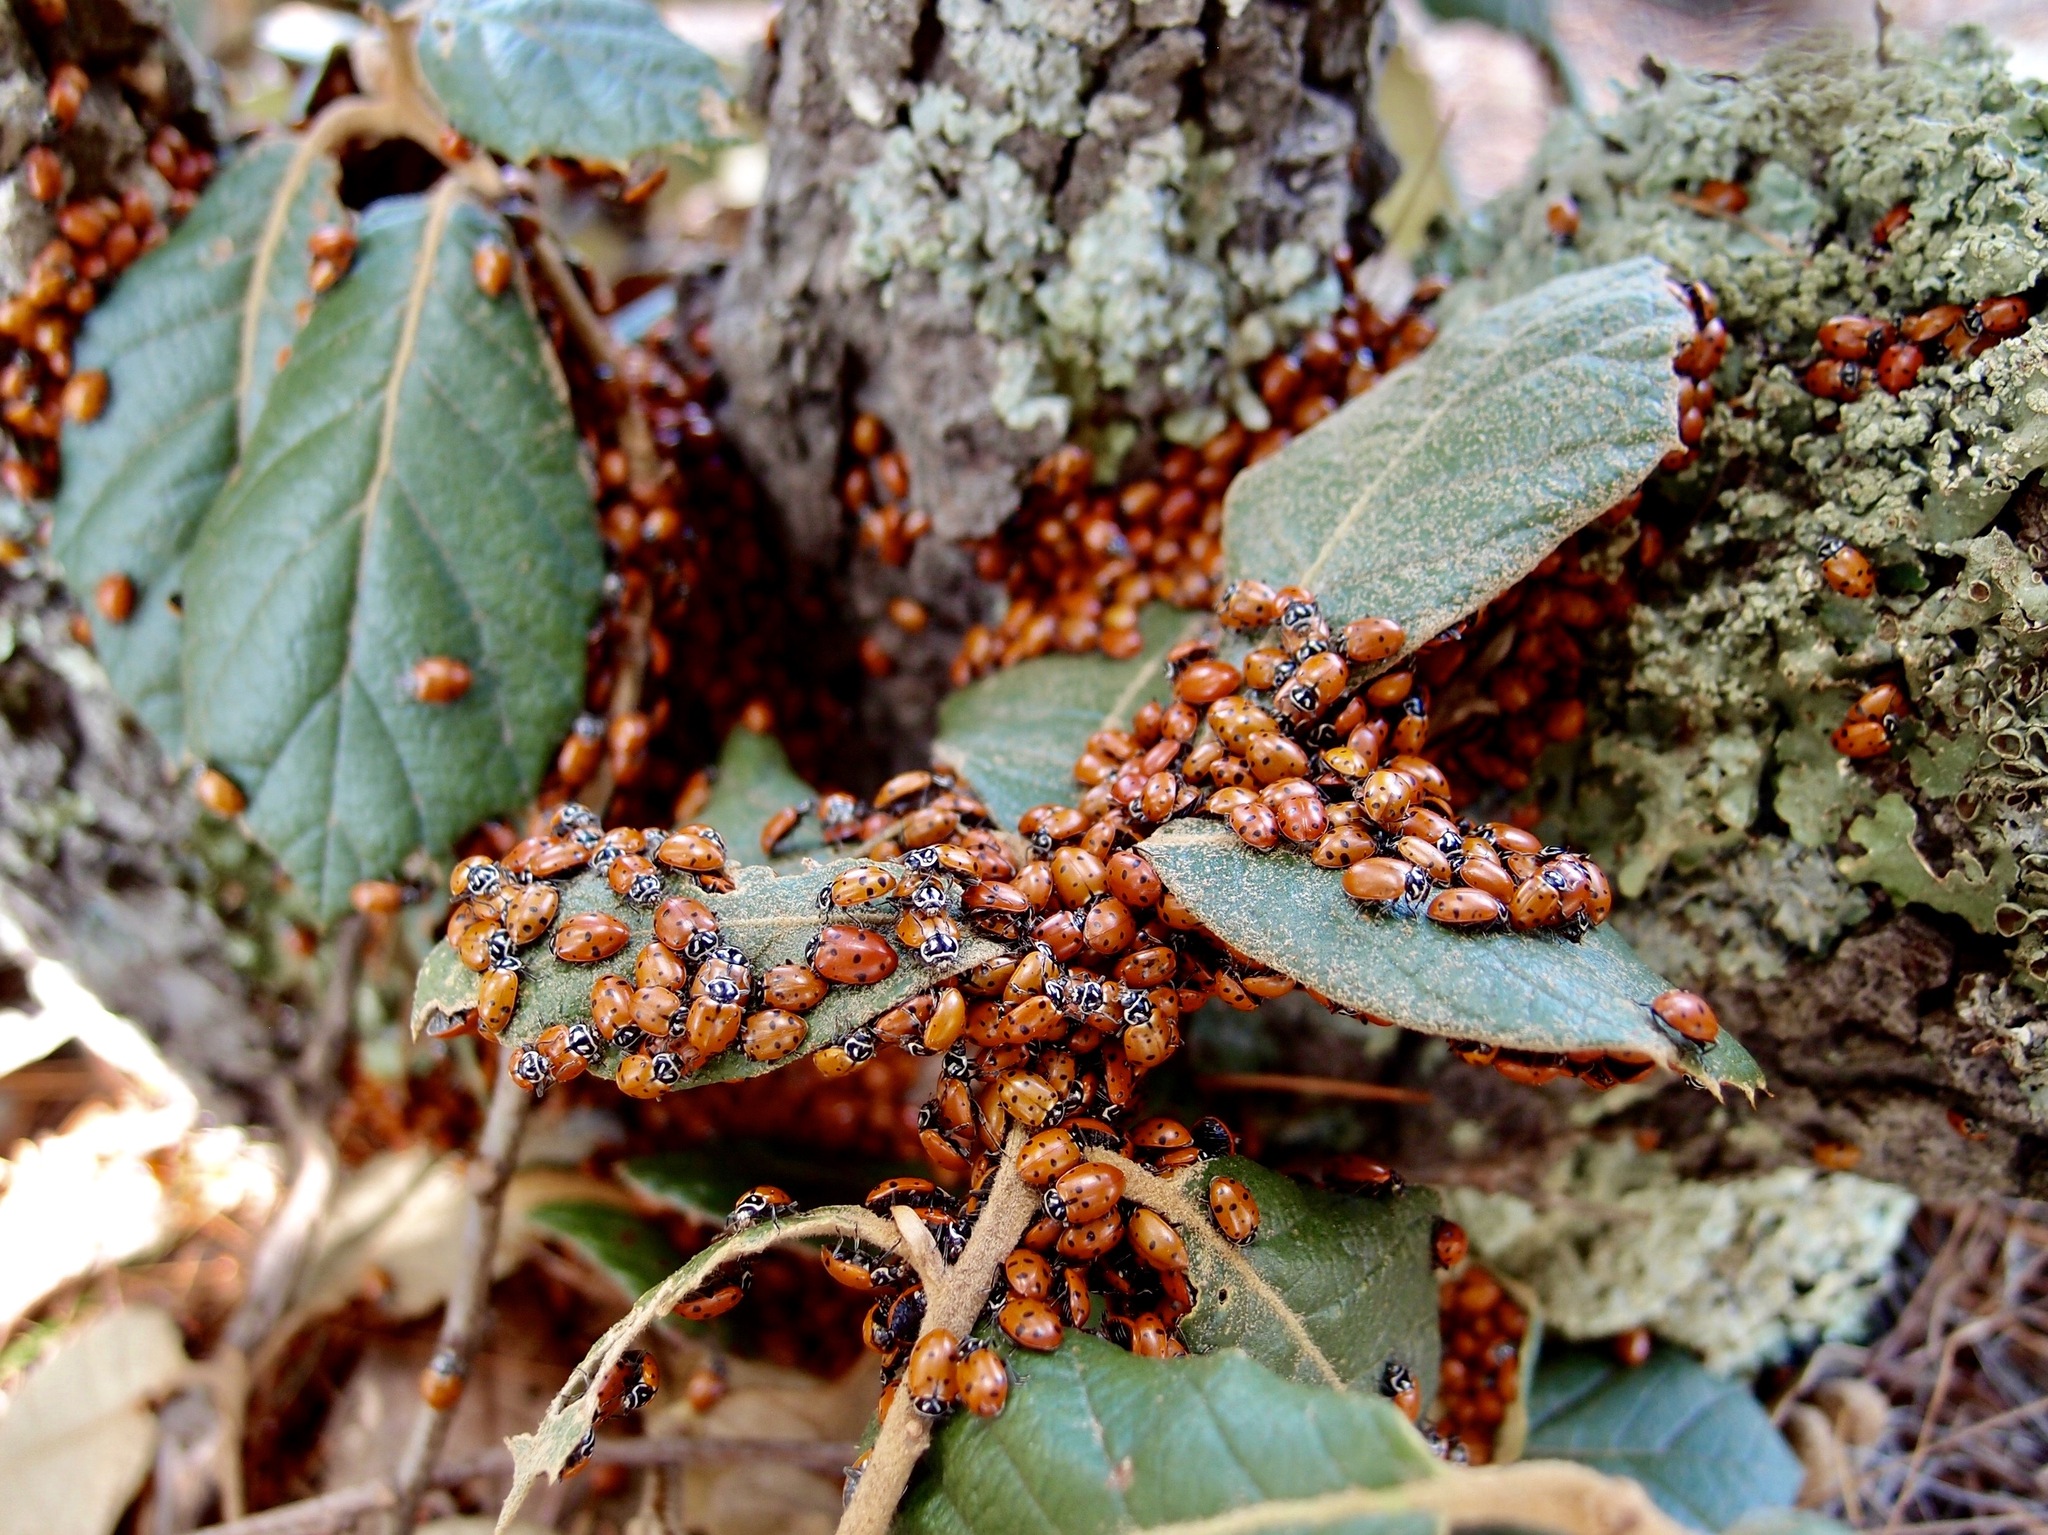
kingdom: Animalia
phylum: Arthropoda
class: Insecta
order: Coleoptera
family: Coccinellidae
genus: Hippodamia
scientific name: Hippodamia convergens
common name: Convergent lady beetle
